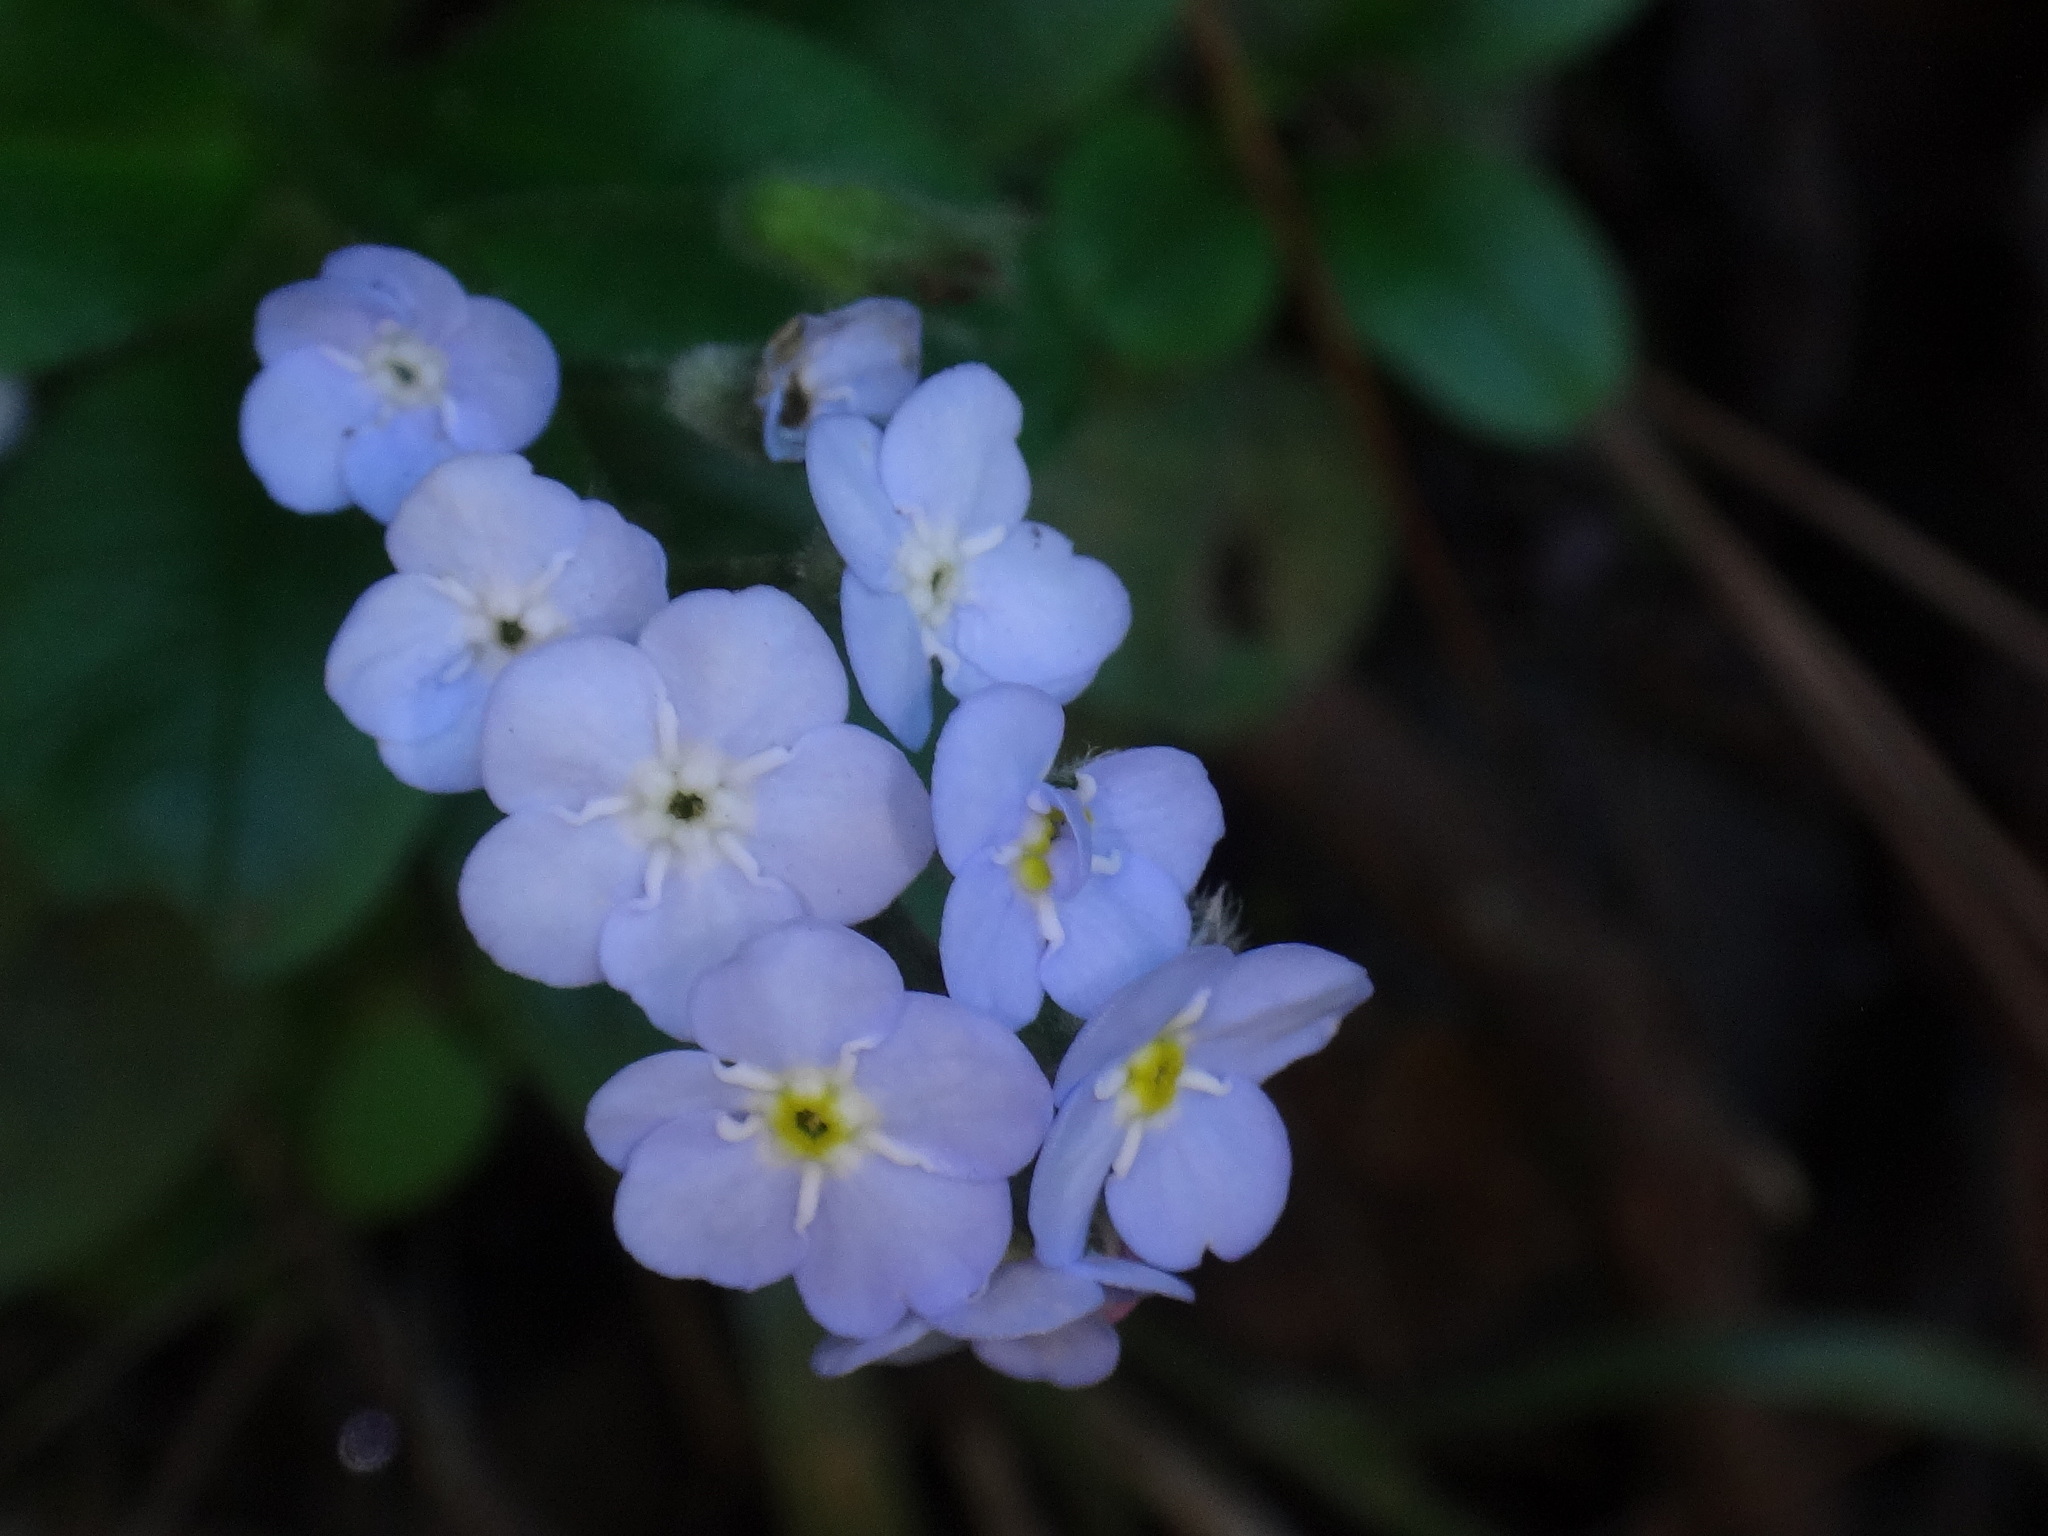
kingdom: Plantae
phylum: Tracheophyta
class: Magnoliopsida
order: Boraginales
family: Boraginaceae
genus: Myosotis
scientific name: Myosotis latifolia
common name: Broadleaf forget-me-not
